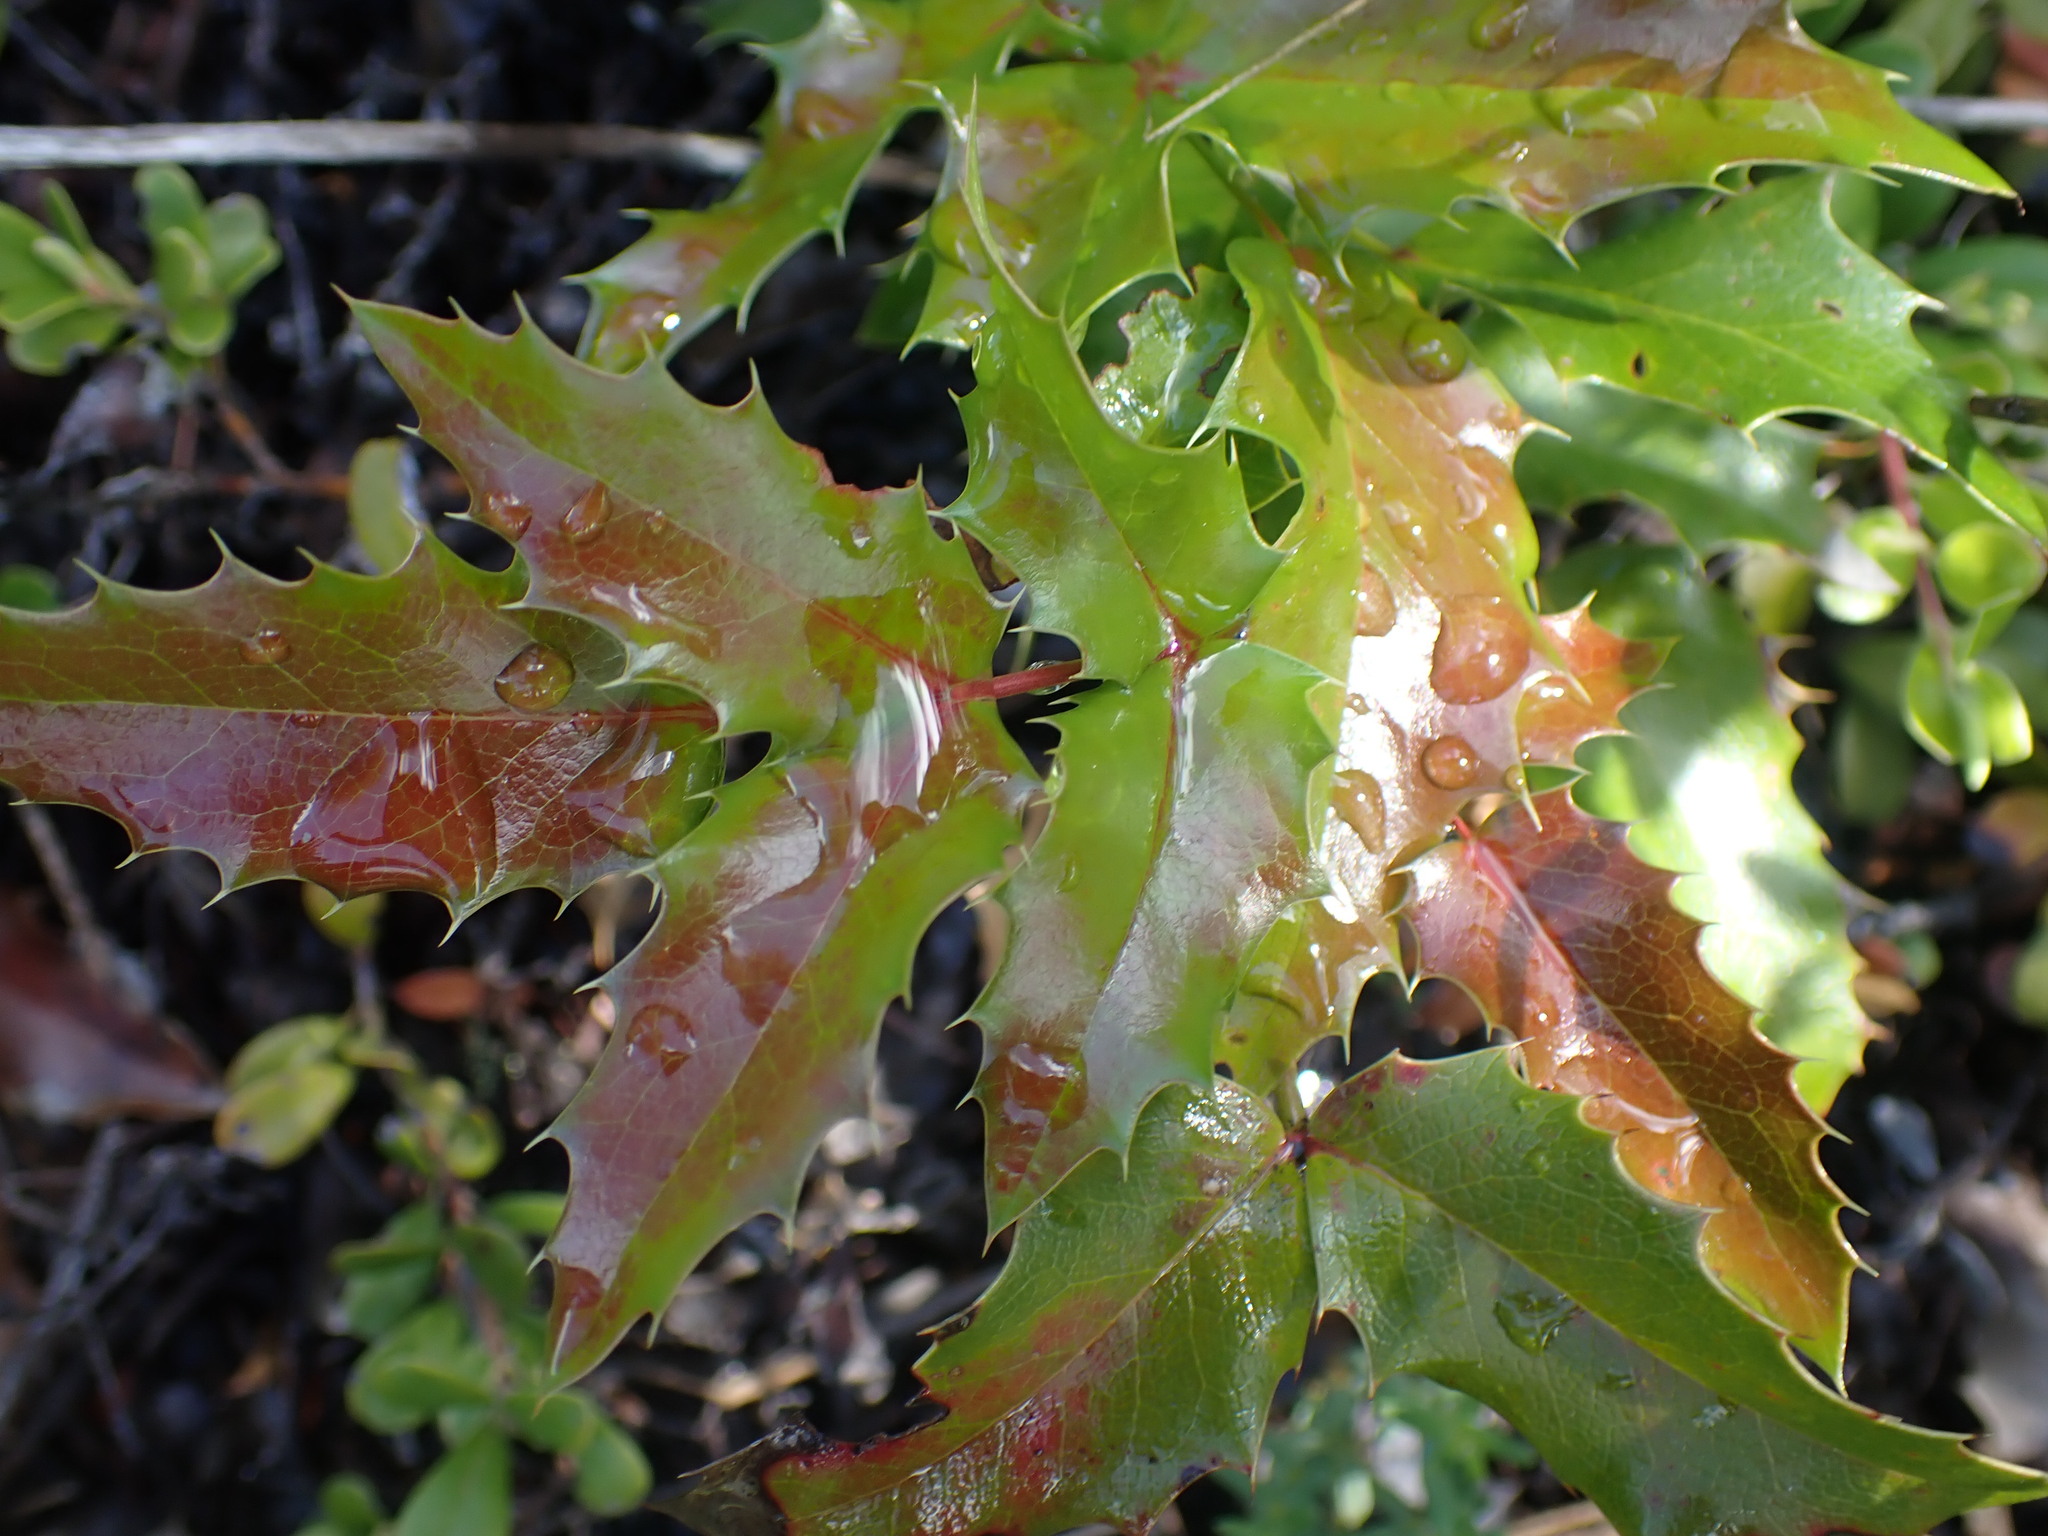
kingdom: Plantae
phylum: Tracheophyta
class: Magnoliopsida
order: Ranunculales
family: Berberidaceae
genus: Mahonia
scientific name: Mahonia aquifolium
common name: Oregon-grape
